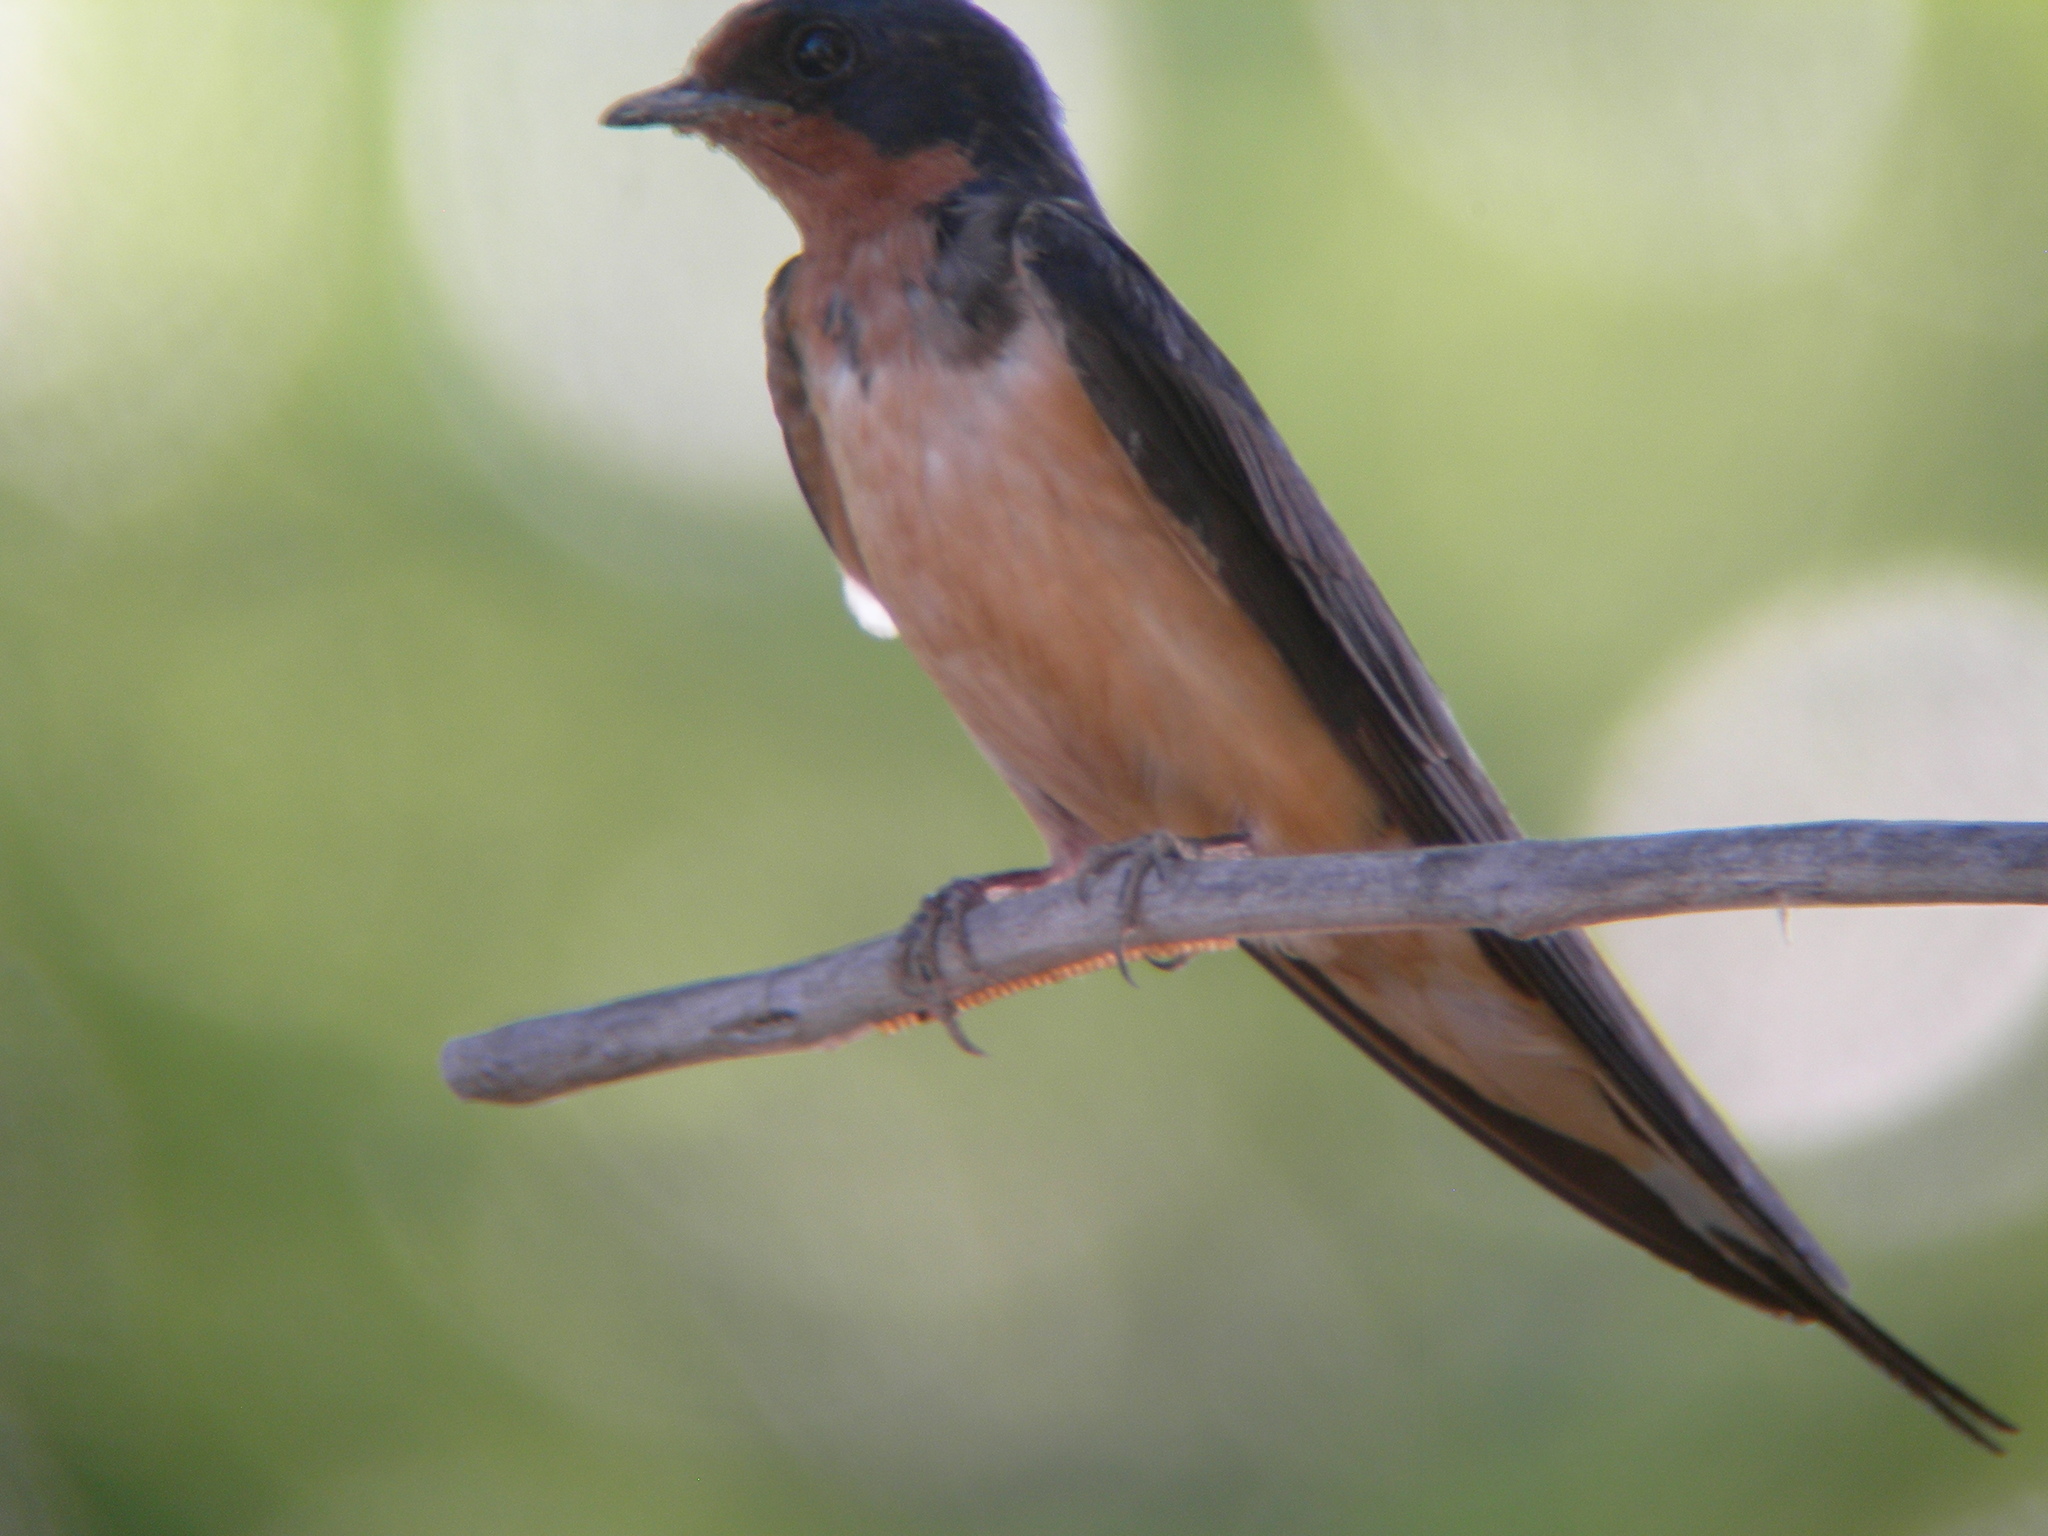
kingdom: Animalia
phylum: Chordata
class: Aves
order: Passeriformes
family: Hirundinidae
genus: Hirundo
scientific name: Hirundo rustica
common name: Barn swallow
